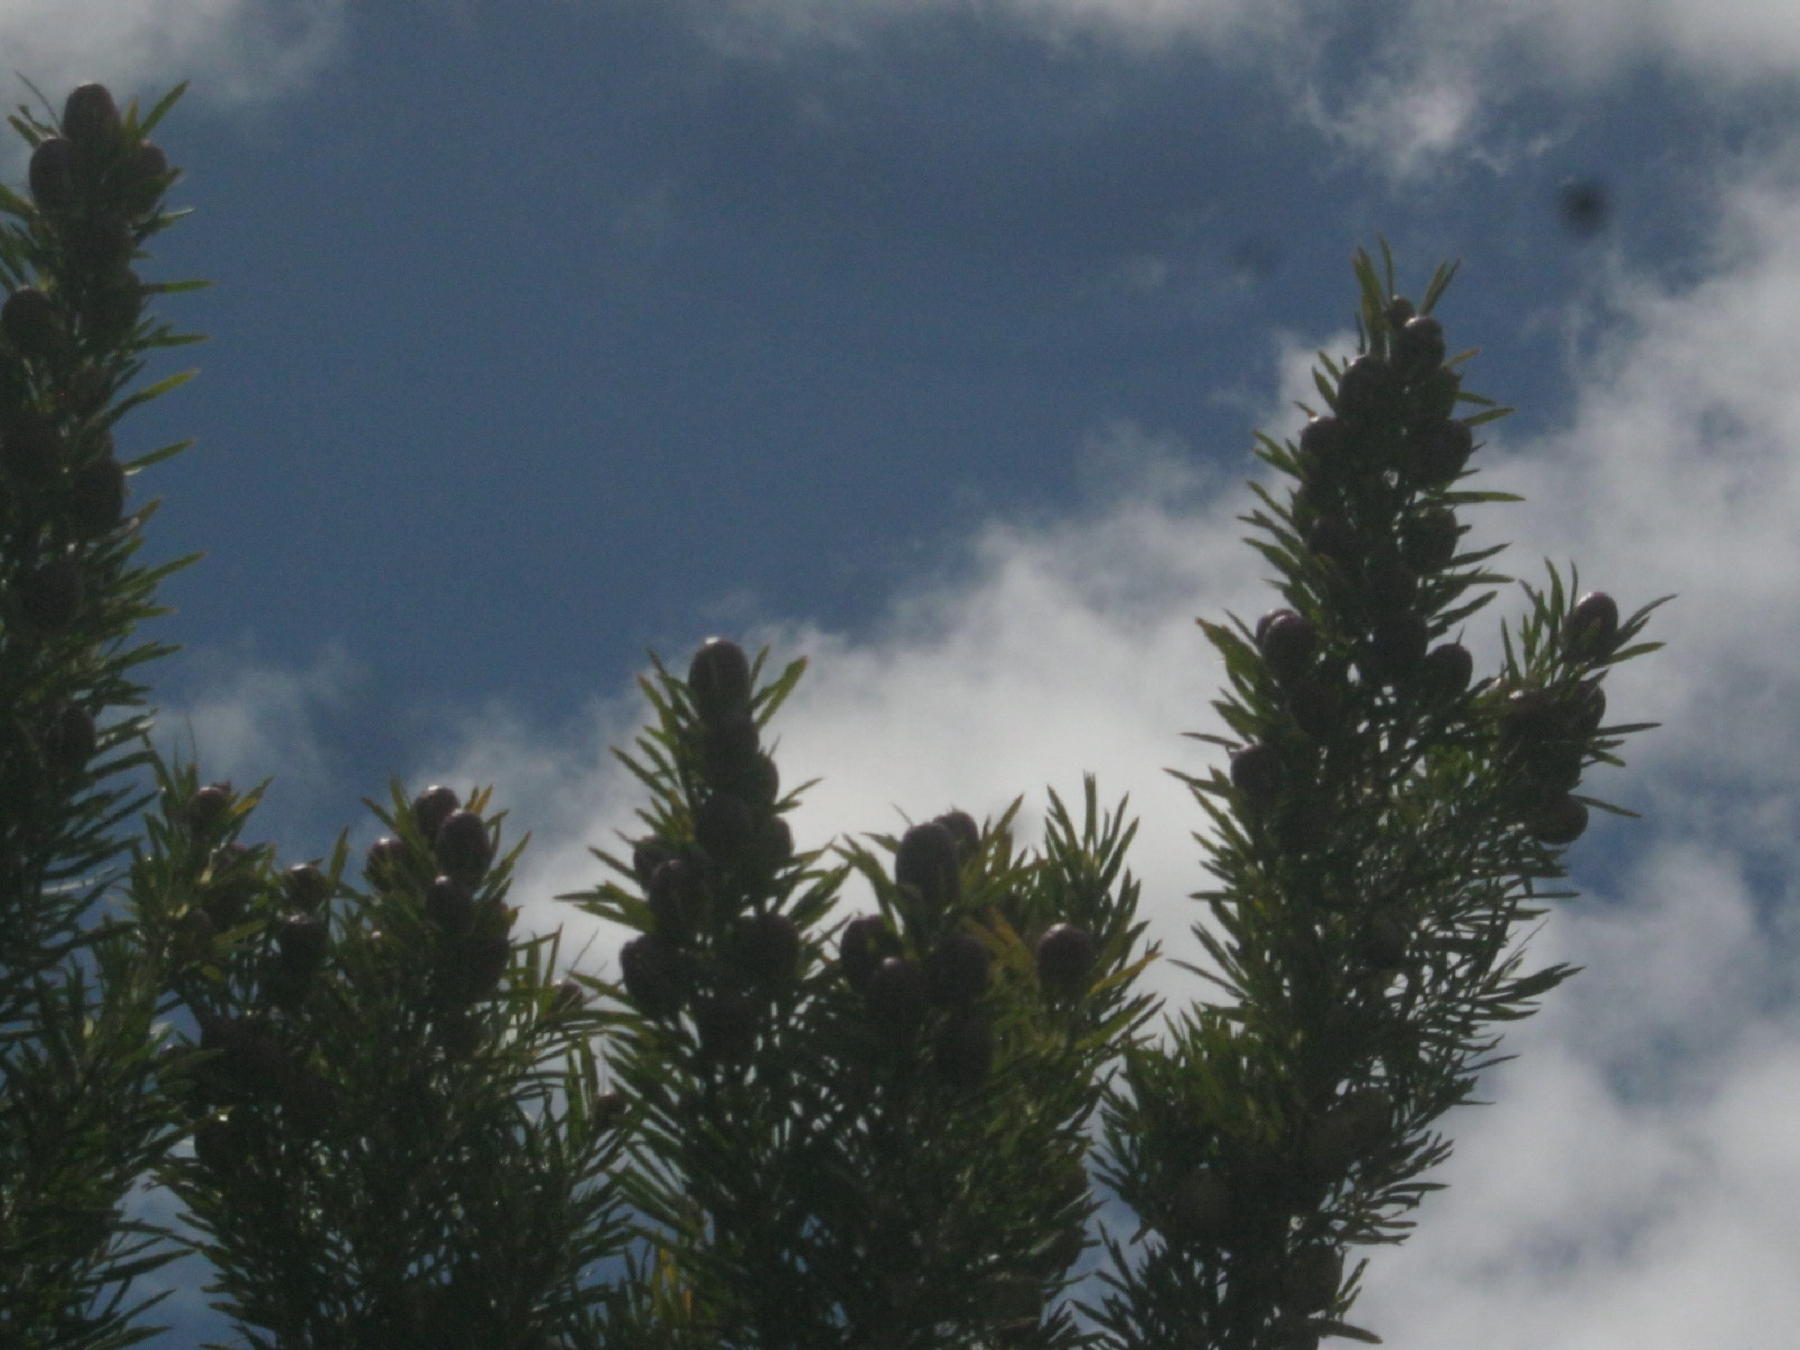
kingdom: Plantae
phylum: Tracheophyta
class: Magnoliopsida
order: Proteales
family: Proteaceae
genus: Leucadendron
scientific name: Leucadendron salicifolium
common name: Common stream conebush
